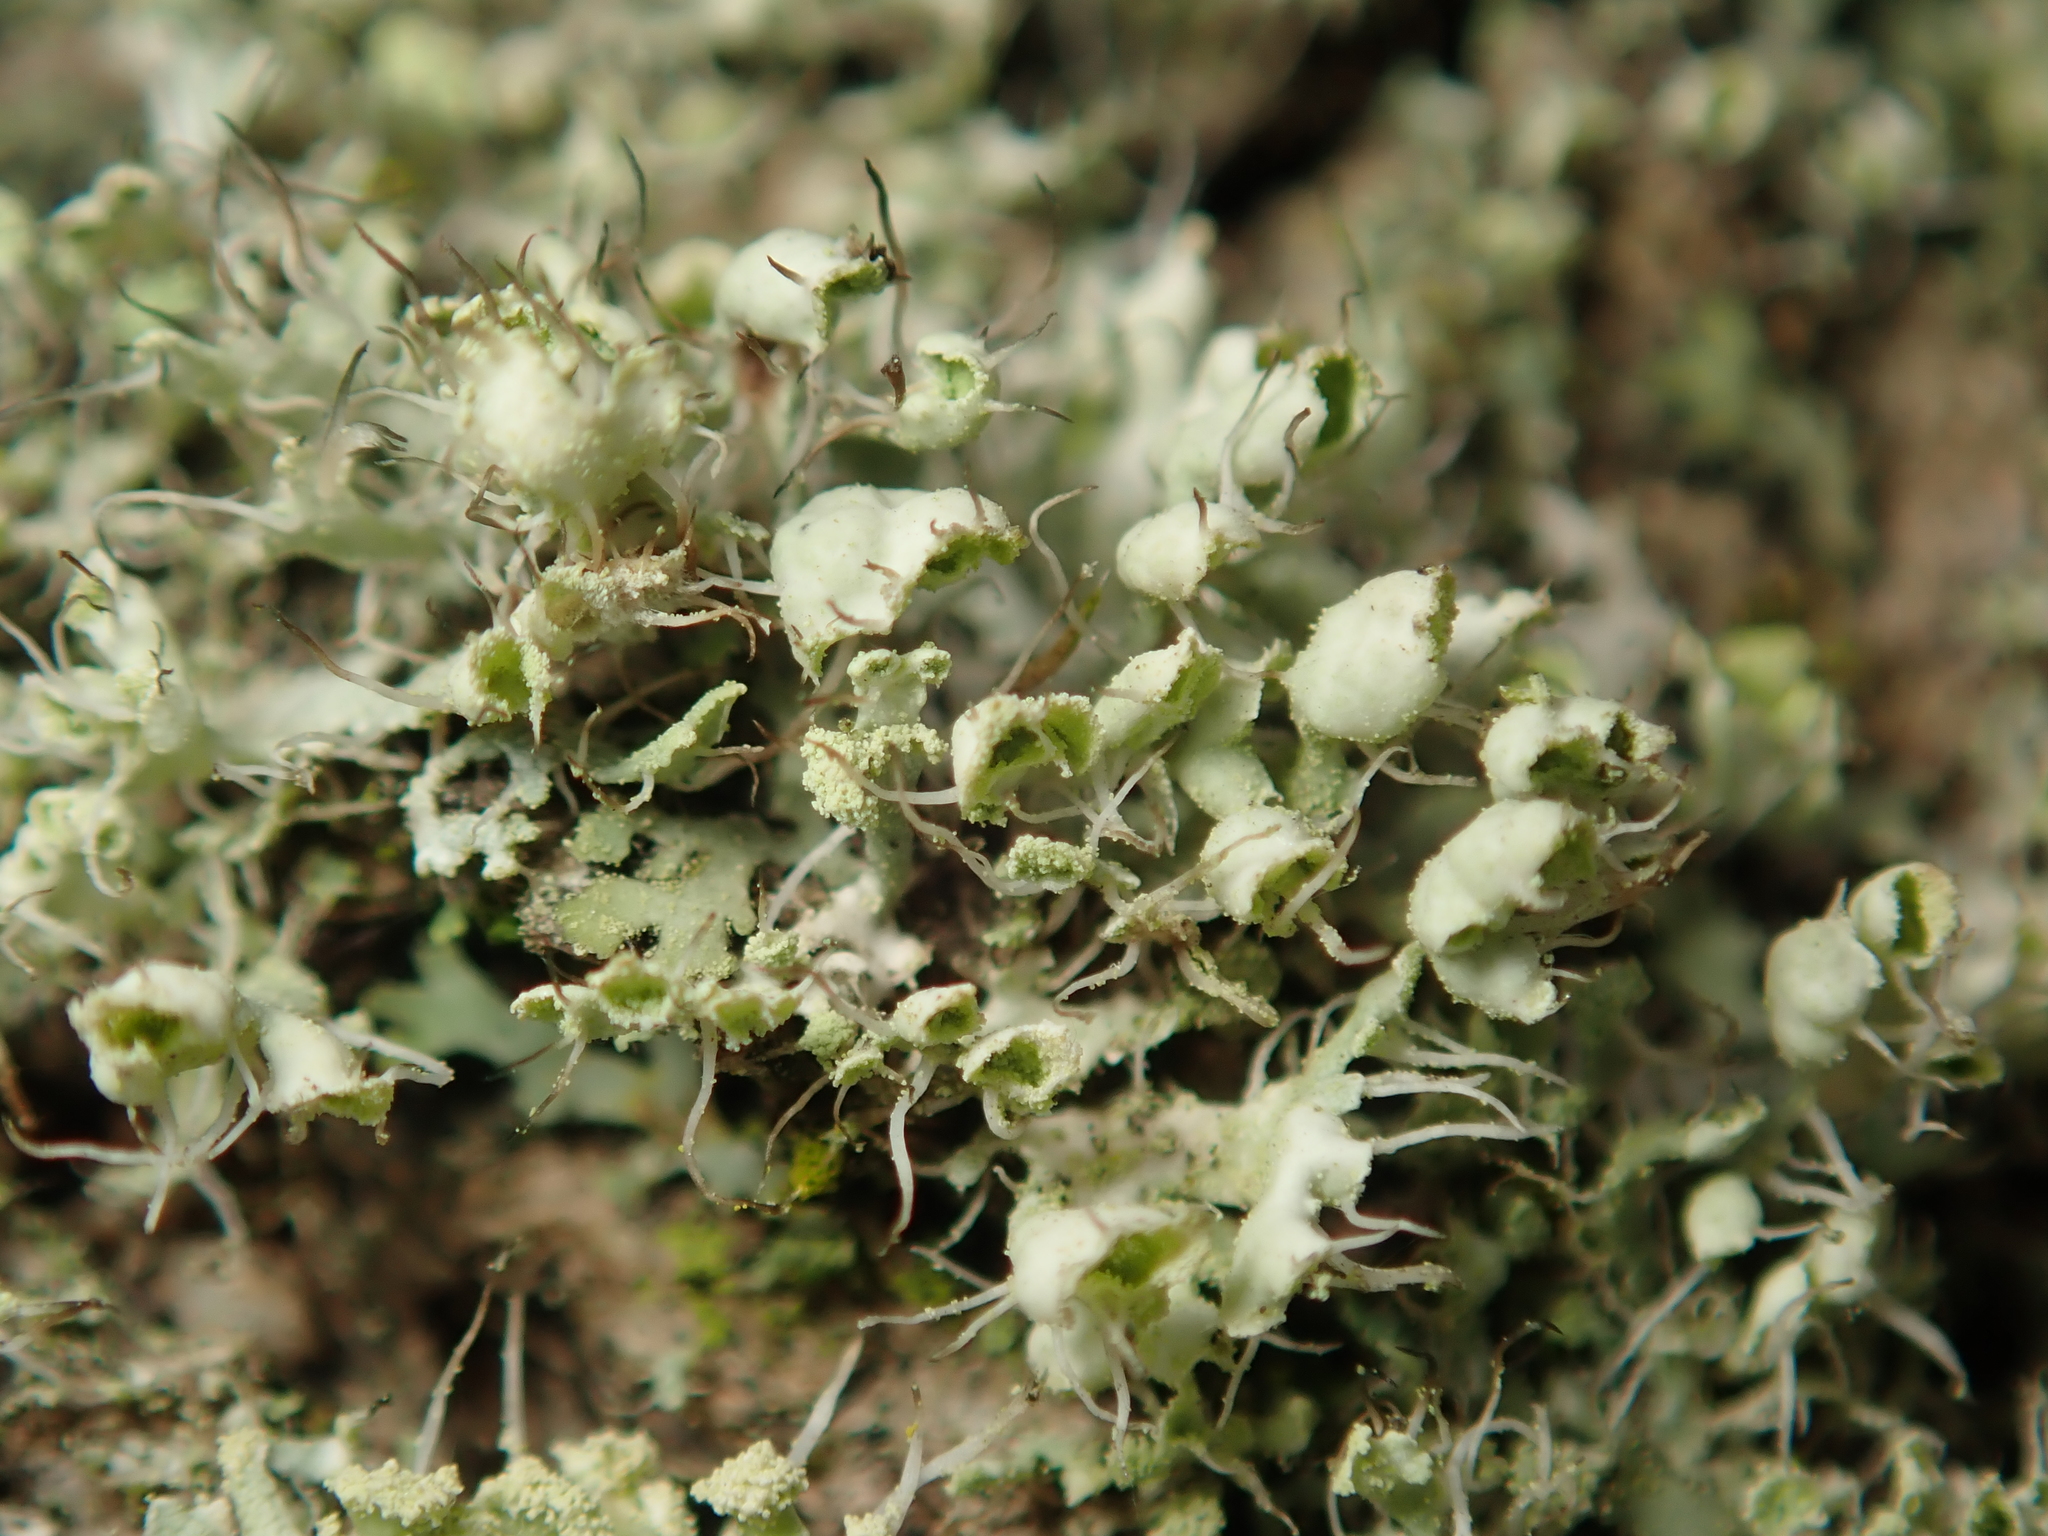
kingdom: Fungi
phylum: Ascomycota
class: Lecanoromycetes
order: Caliciales
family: Physciaceae
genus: Physcia
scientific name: Physcia adscendens
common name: Hooded rosette lichen
